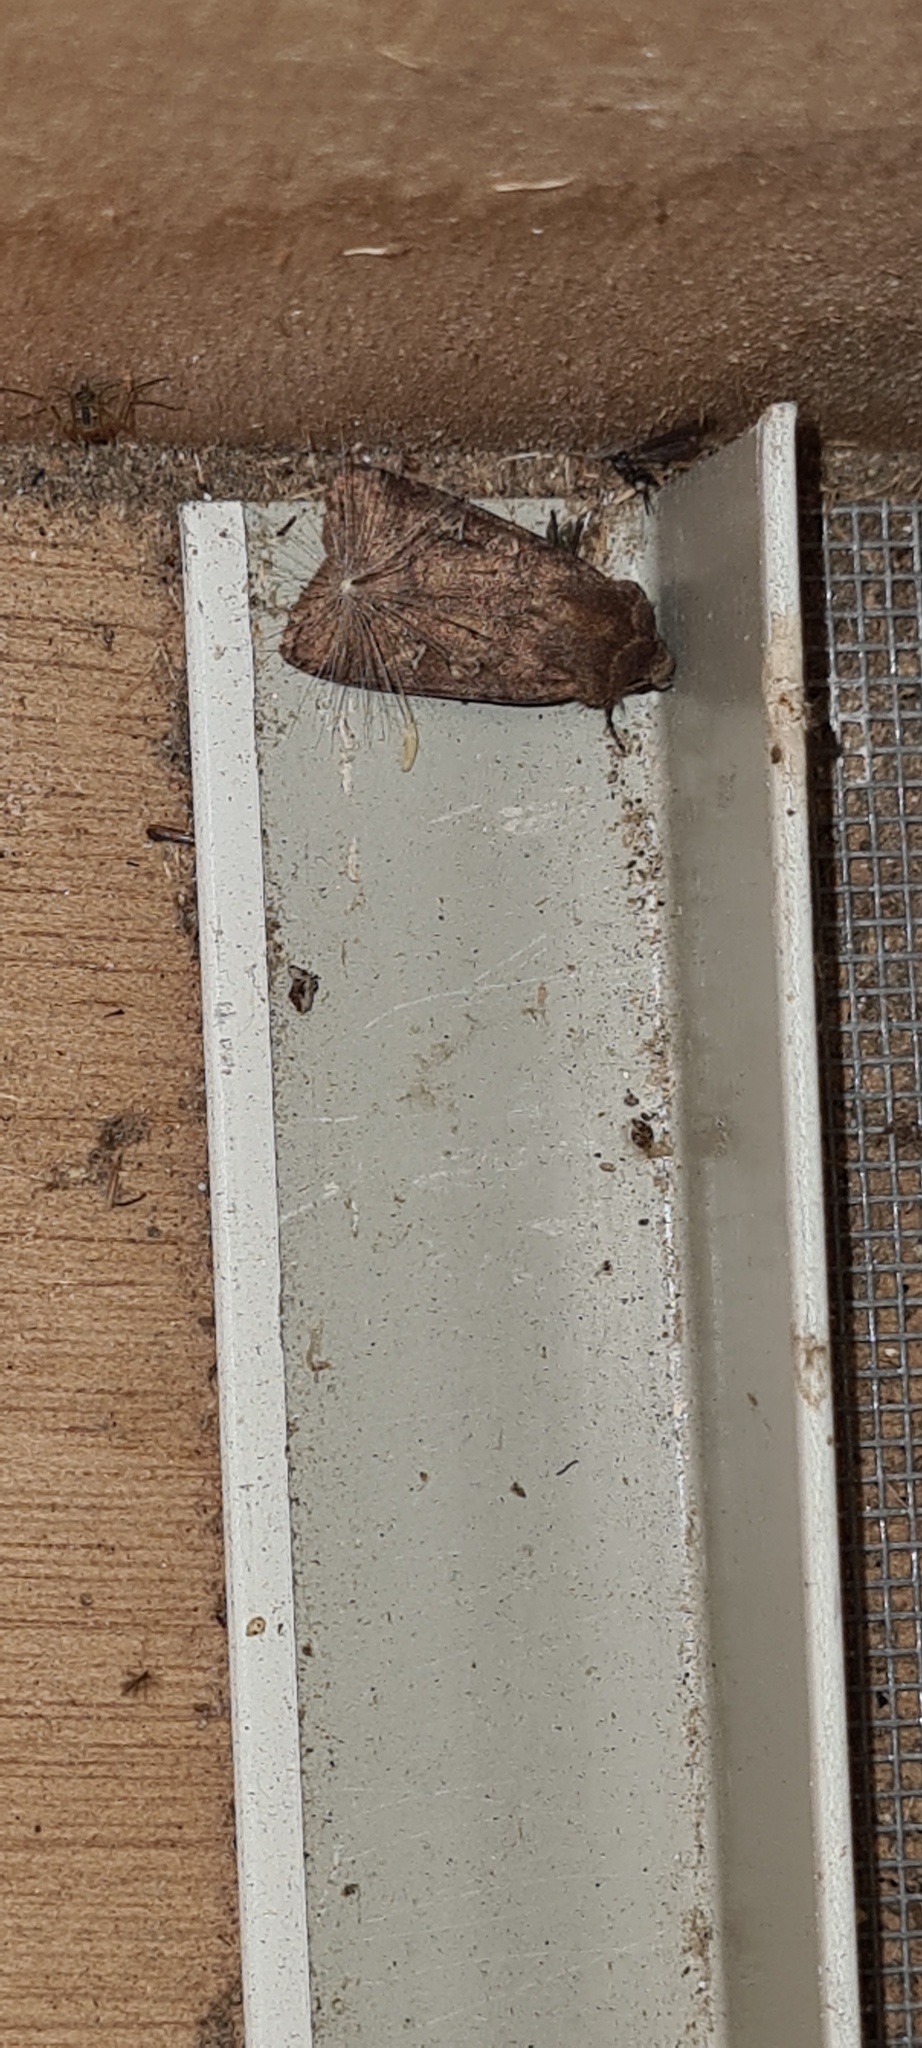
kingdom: Animalia
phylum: Arthropoda
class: Insecta
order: Lepidoptera
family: Noctuidae
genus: Diarsia
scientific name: Diarsia rubi
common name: Small square-spot
